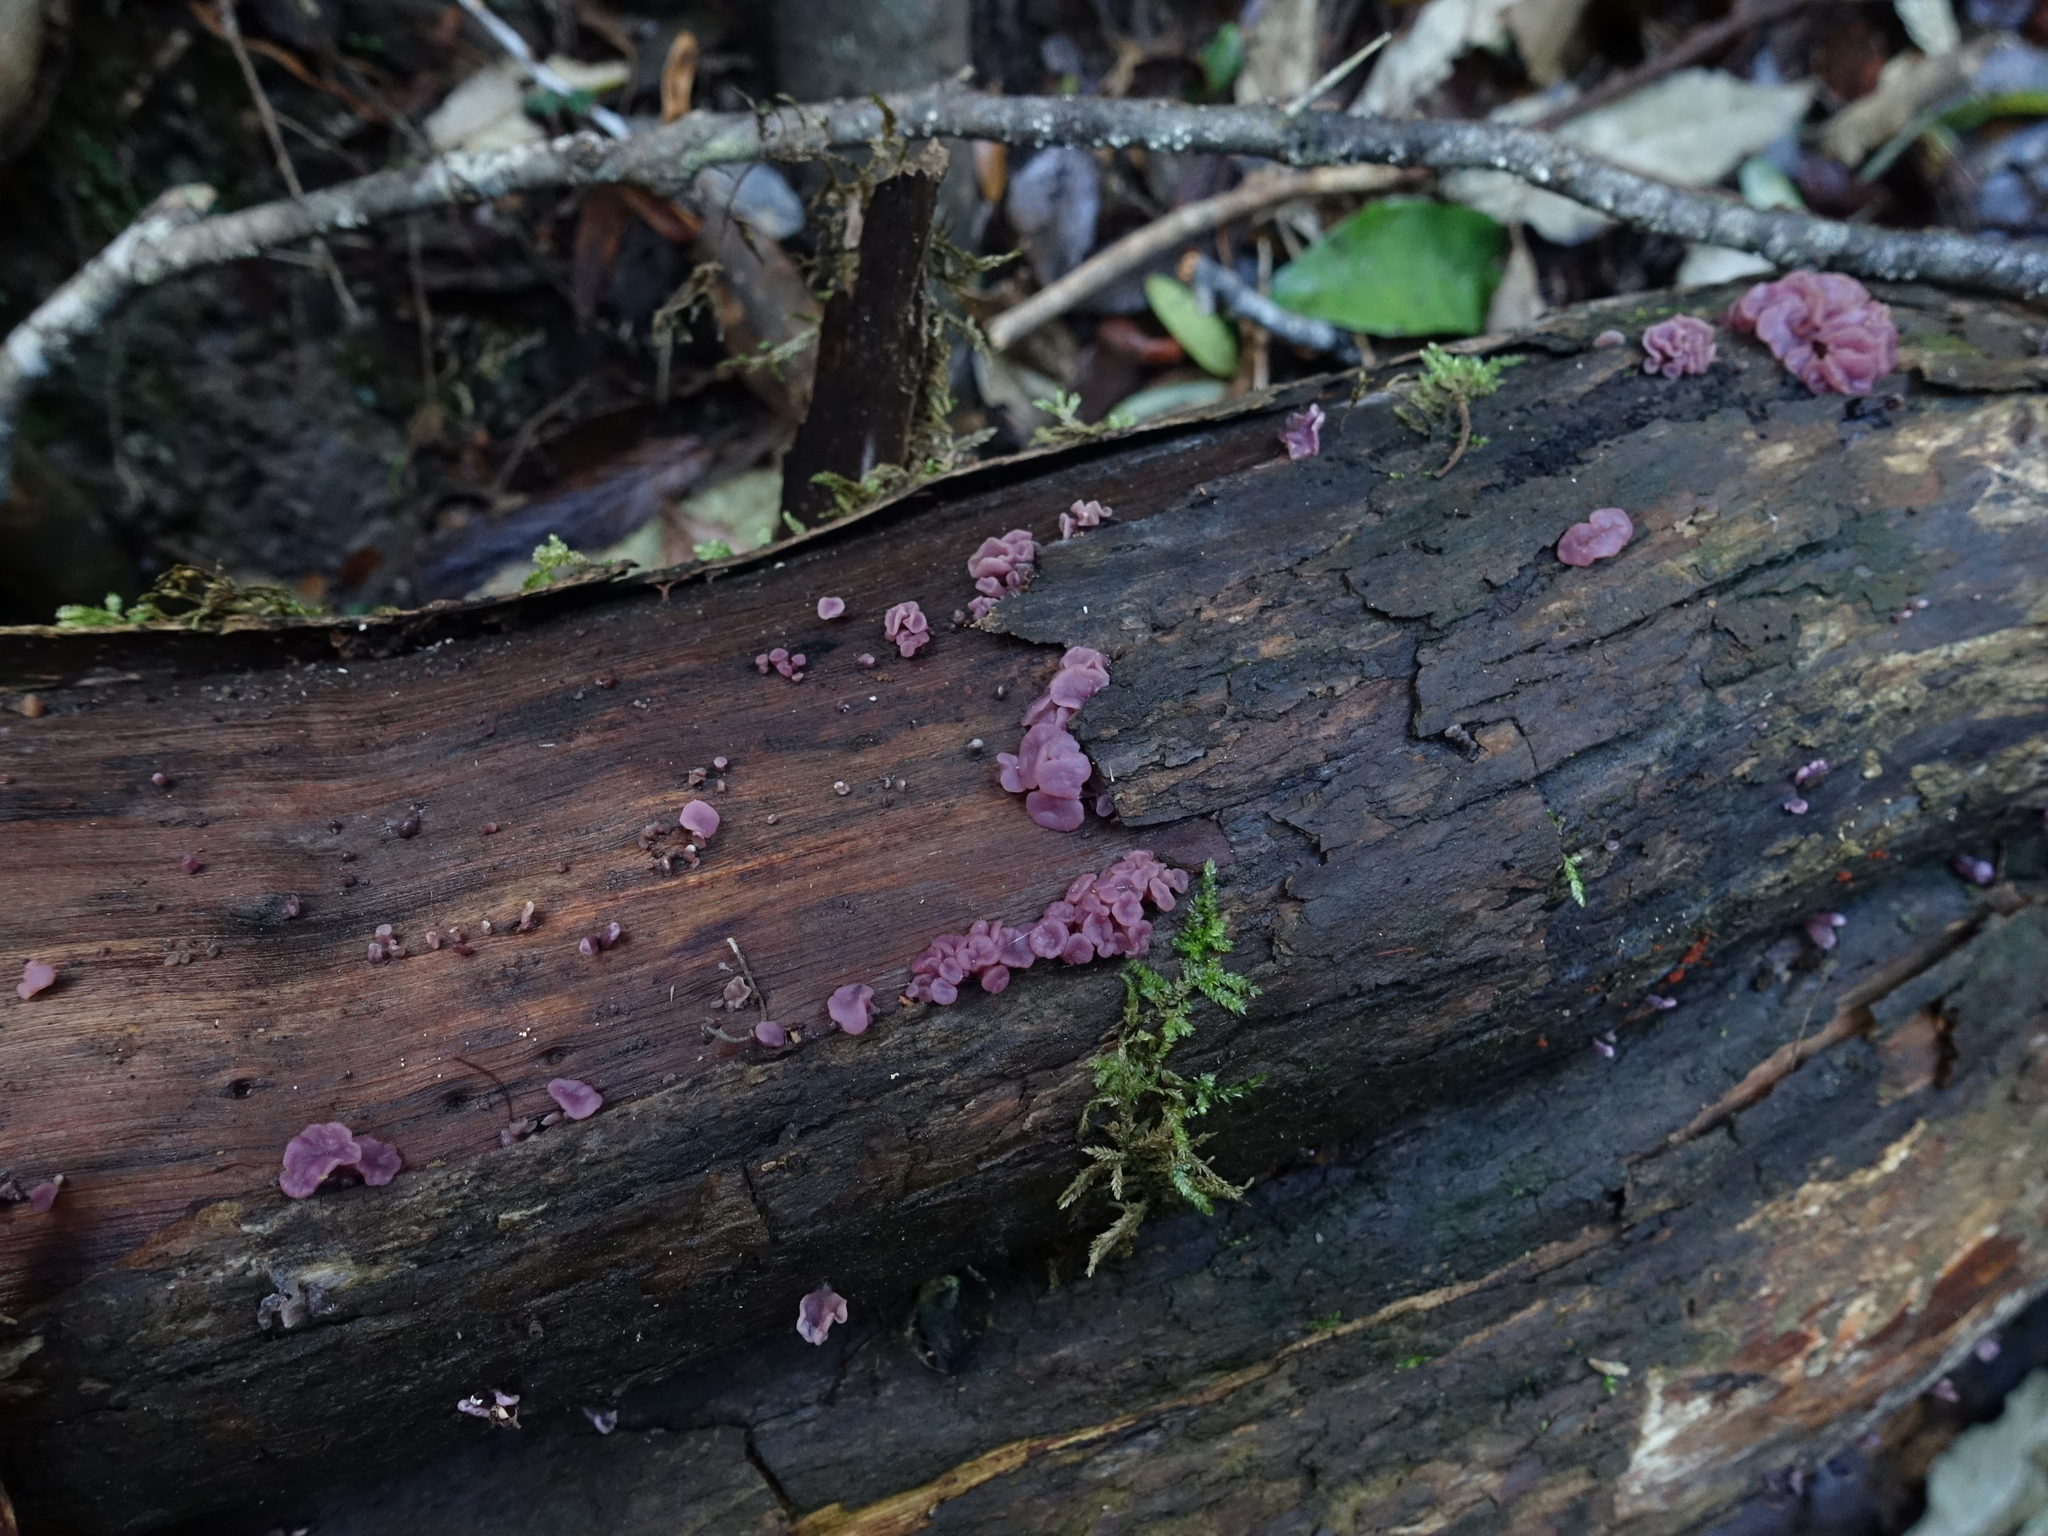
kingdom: Fungi
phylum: Ascomycota
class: Leotiomycetes
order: Helotiales
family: Gelatinodiscaceae
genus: Ascocoryne
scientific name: Ascocoryne sarcoides
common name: Purple jellydisc
